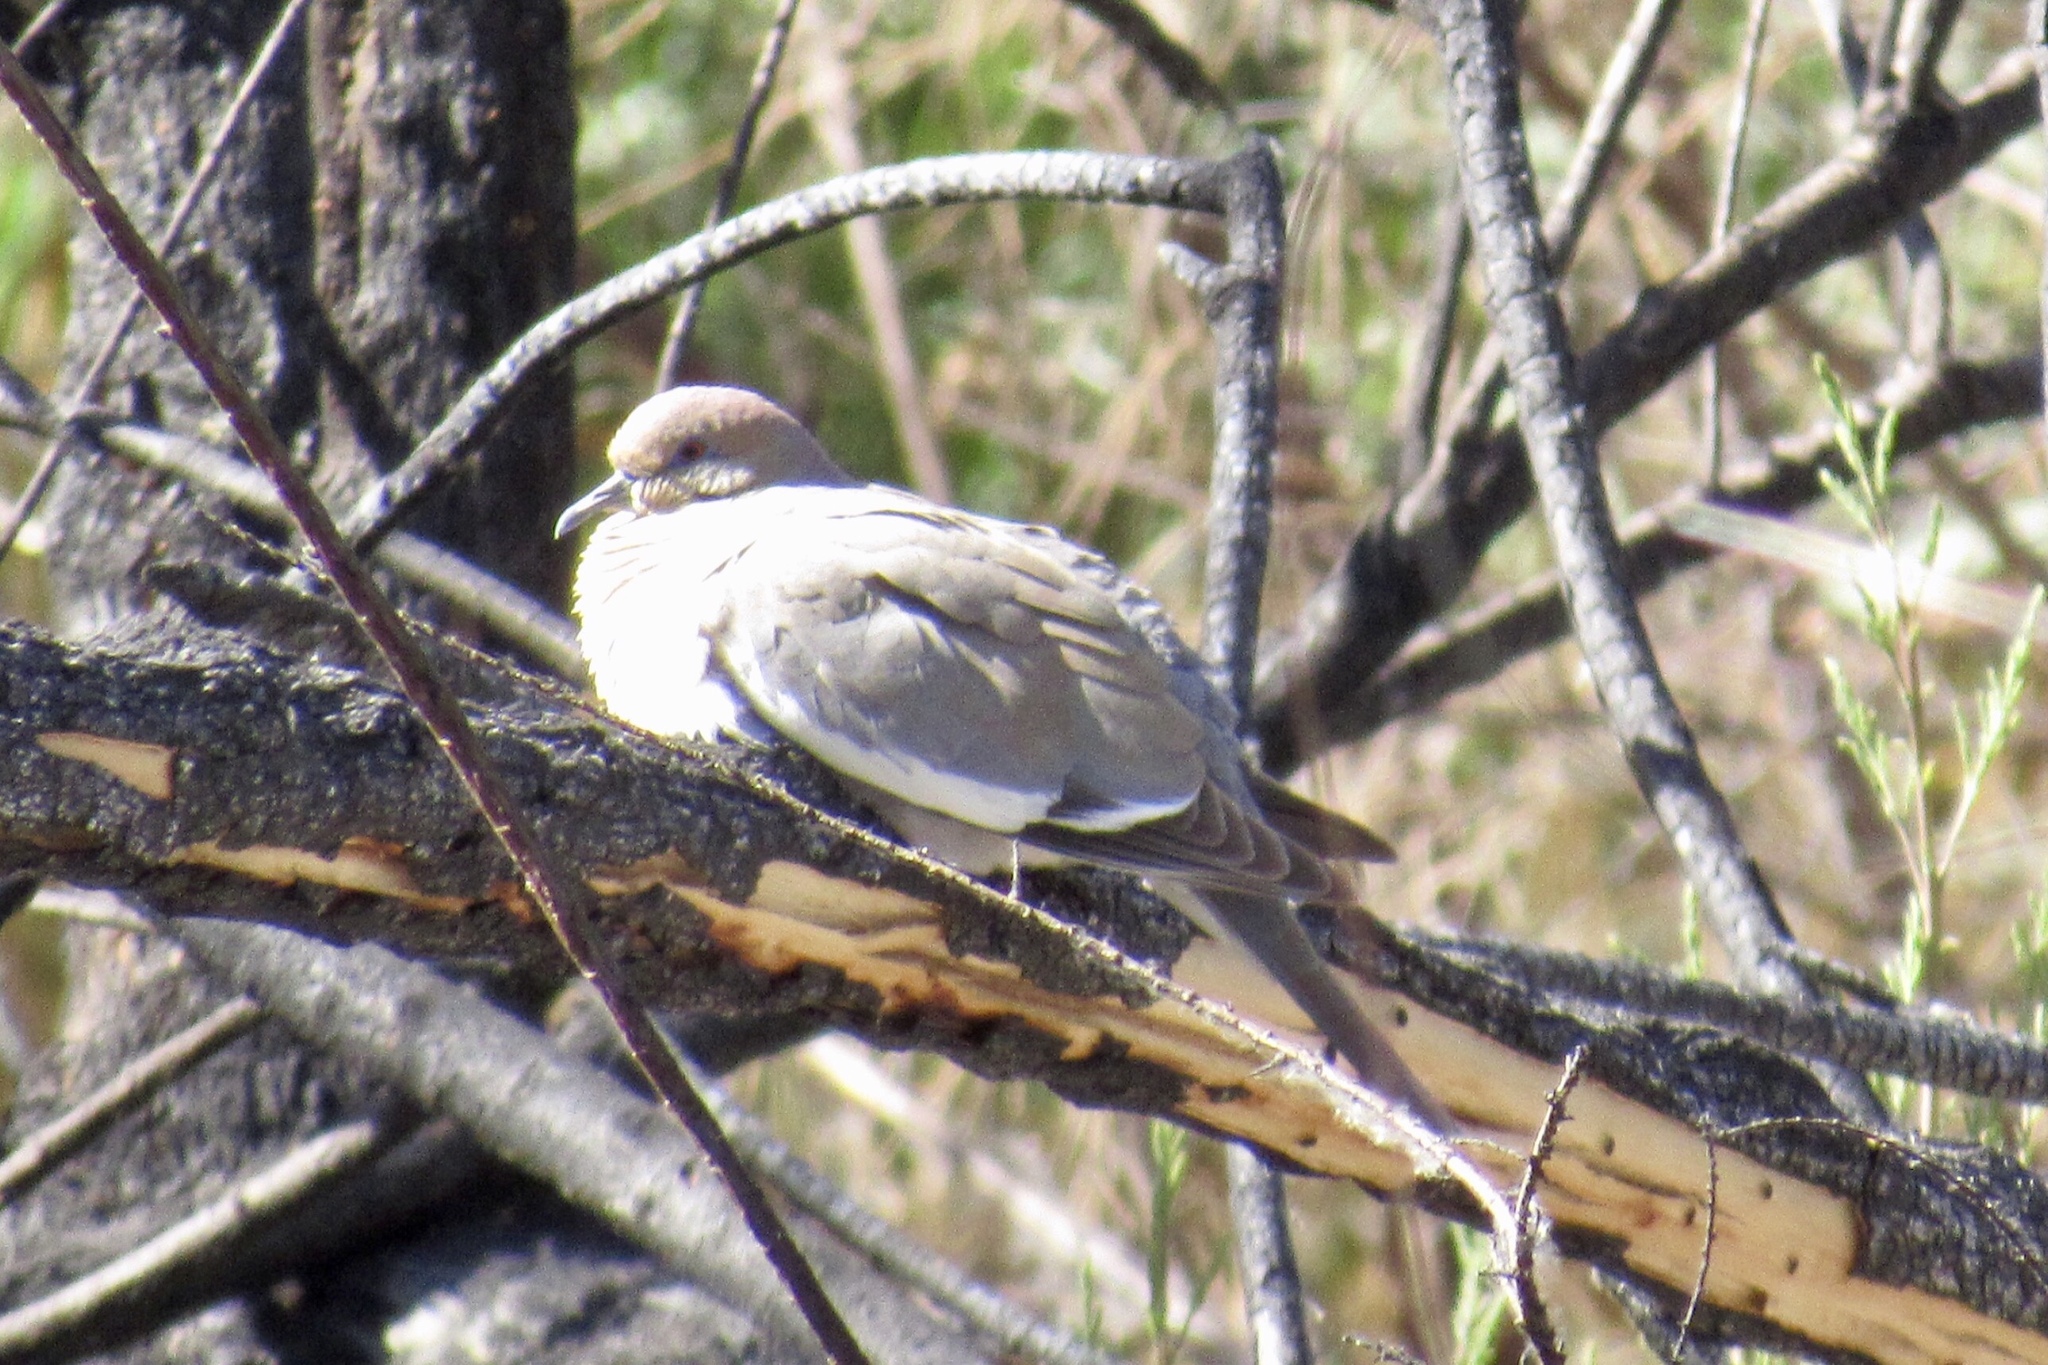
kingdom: Animalia
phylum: Chordata
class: Aves
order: Columbiformes
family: Columbidae
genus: Zenaida
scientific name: Zenaida asiatica
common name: White-winged dove
